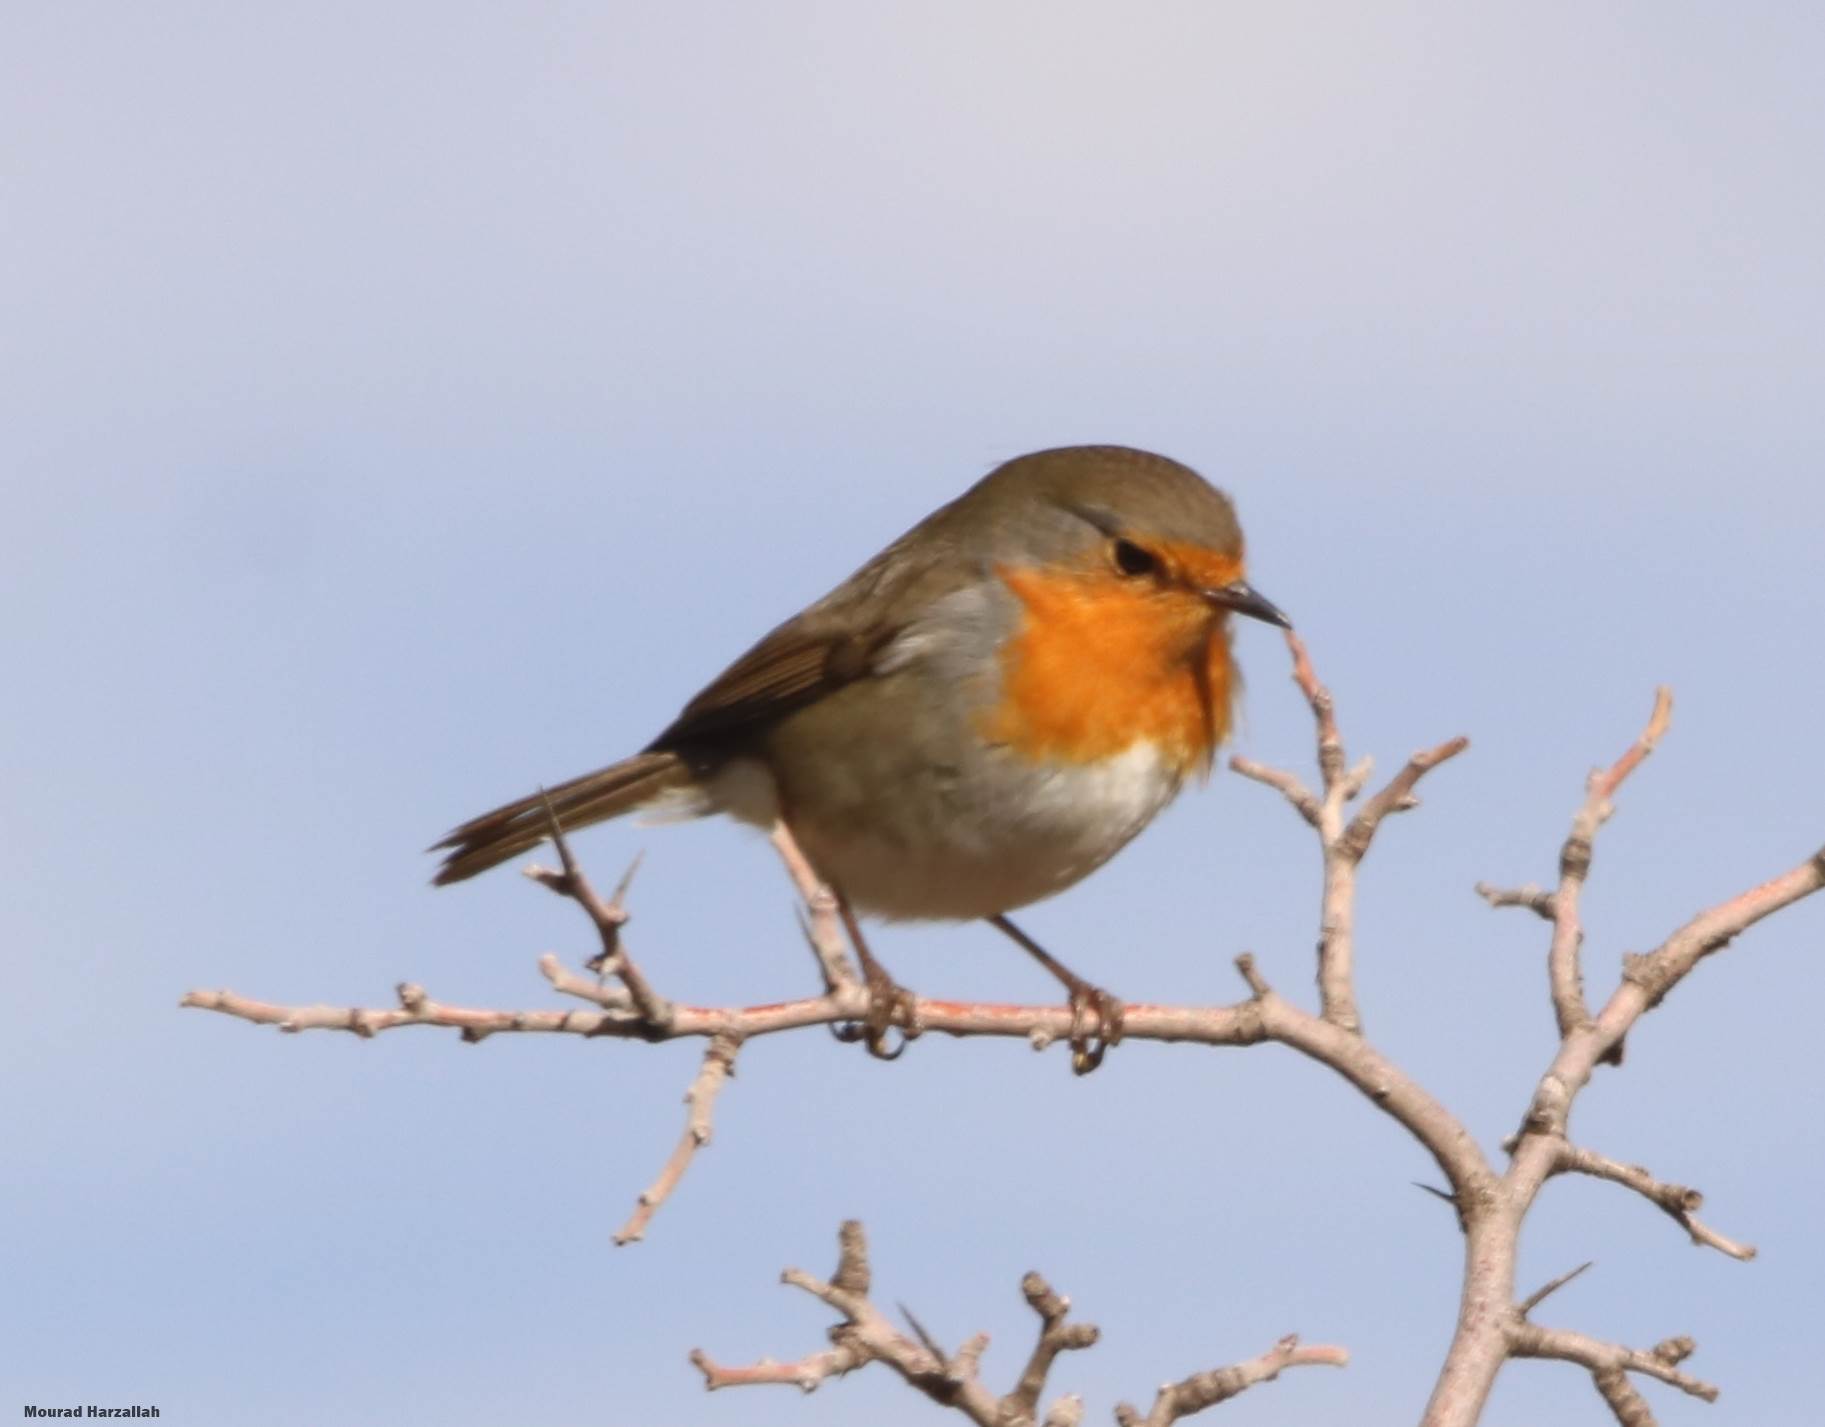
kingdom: Animalia
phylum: Chordata
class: Aves
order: Passeriformes
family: Muscicapidae
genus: Erithacus
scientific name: Erithacus rubecula
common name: European robin
